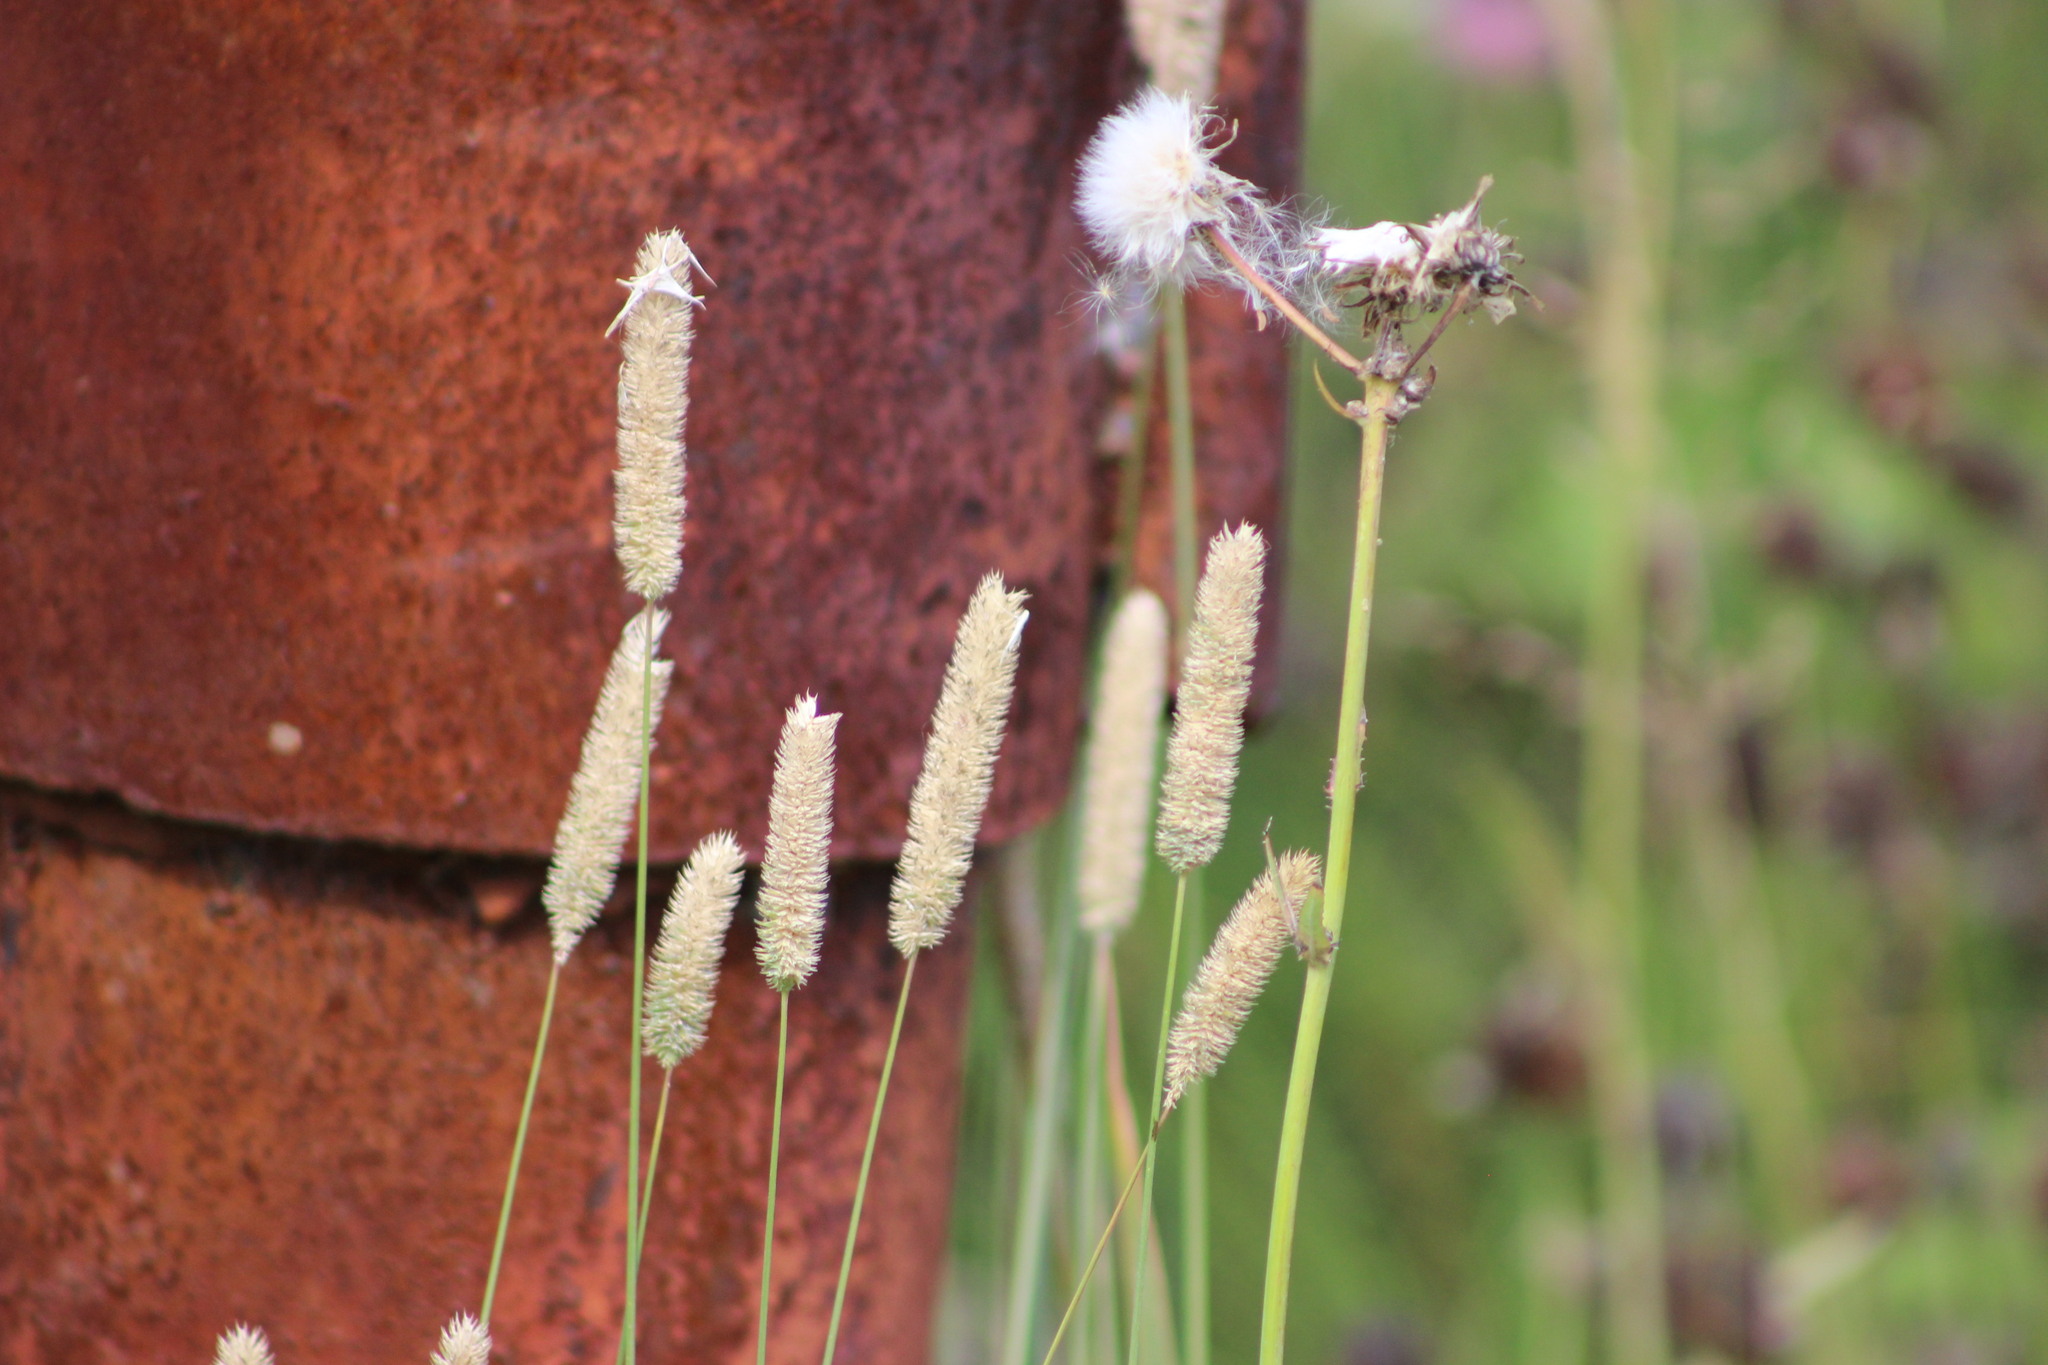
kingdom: Plantae
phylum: Tracheophyta
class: Liliopsida
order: Poales
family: Poaceae
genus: Phleum
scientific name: Phleum pratense
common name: Timothy grass
